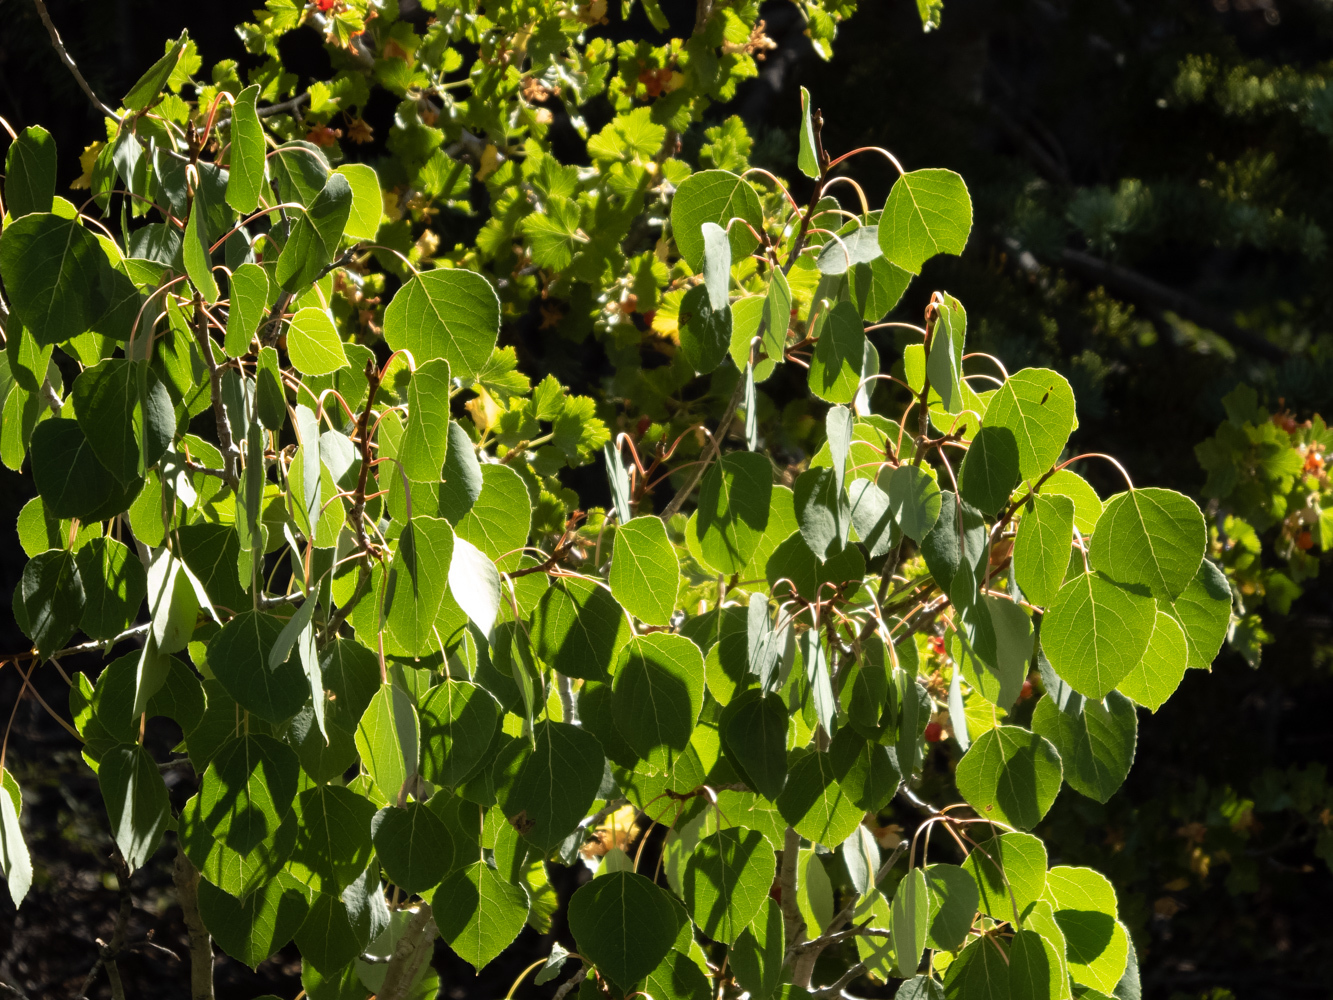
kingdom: Plantae
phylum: Tracheophyta
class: Magnoliopsida
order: Malpighiales
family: Salicaceae
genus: Populus
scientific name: Populus tremuloides
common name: Quaking aspen
